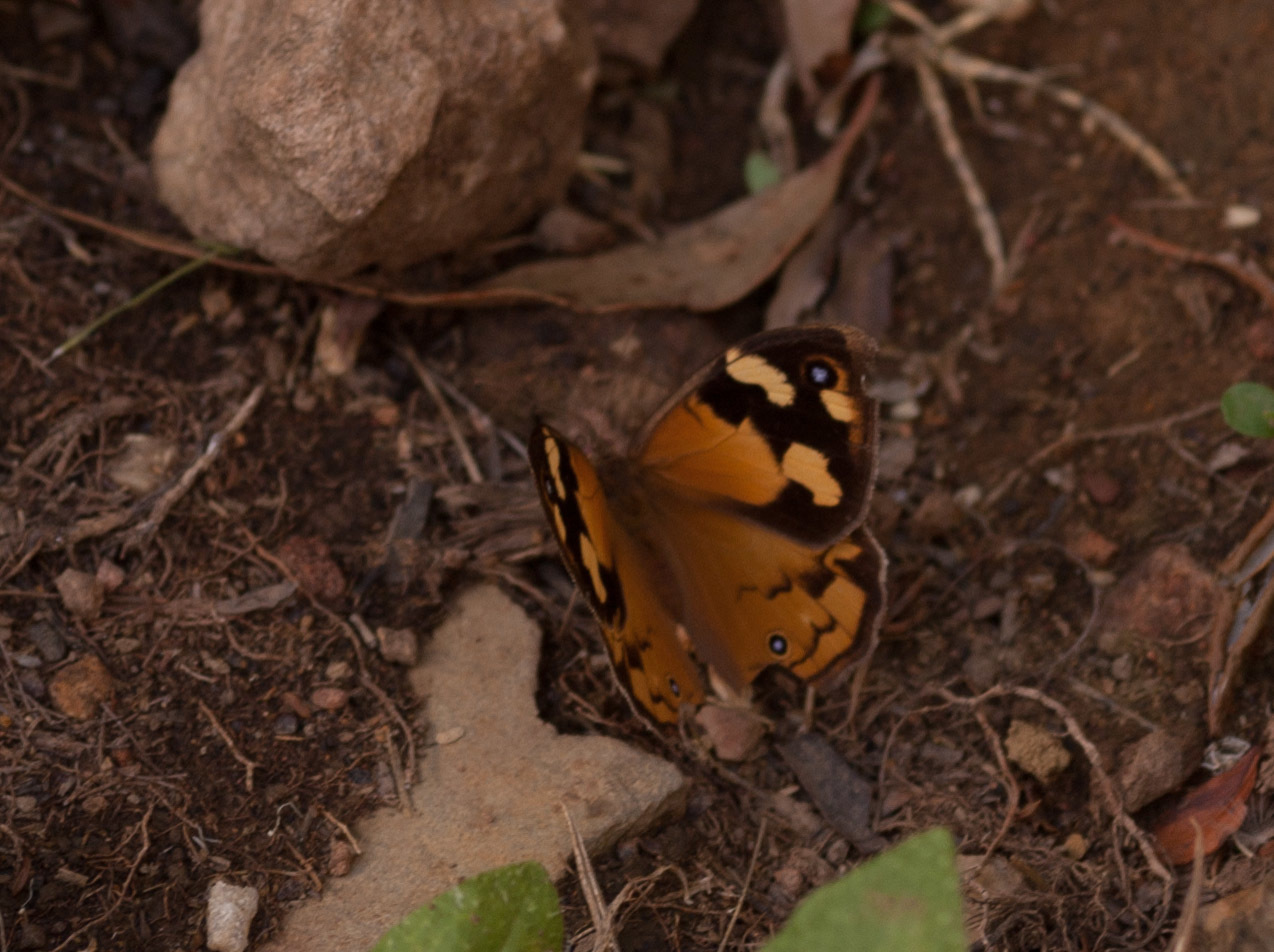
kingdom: Animalia
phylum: Arthropoda
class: Insecta
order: Lepidoptera
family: Nymphalidae
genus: Heteronympha
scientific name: Heteronympha merope
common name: Common brown
